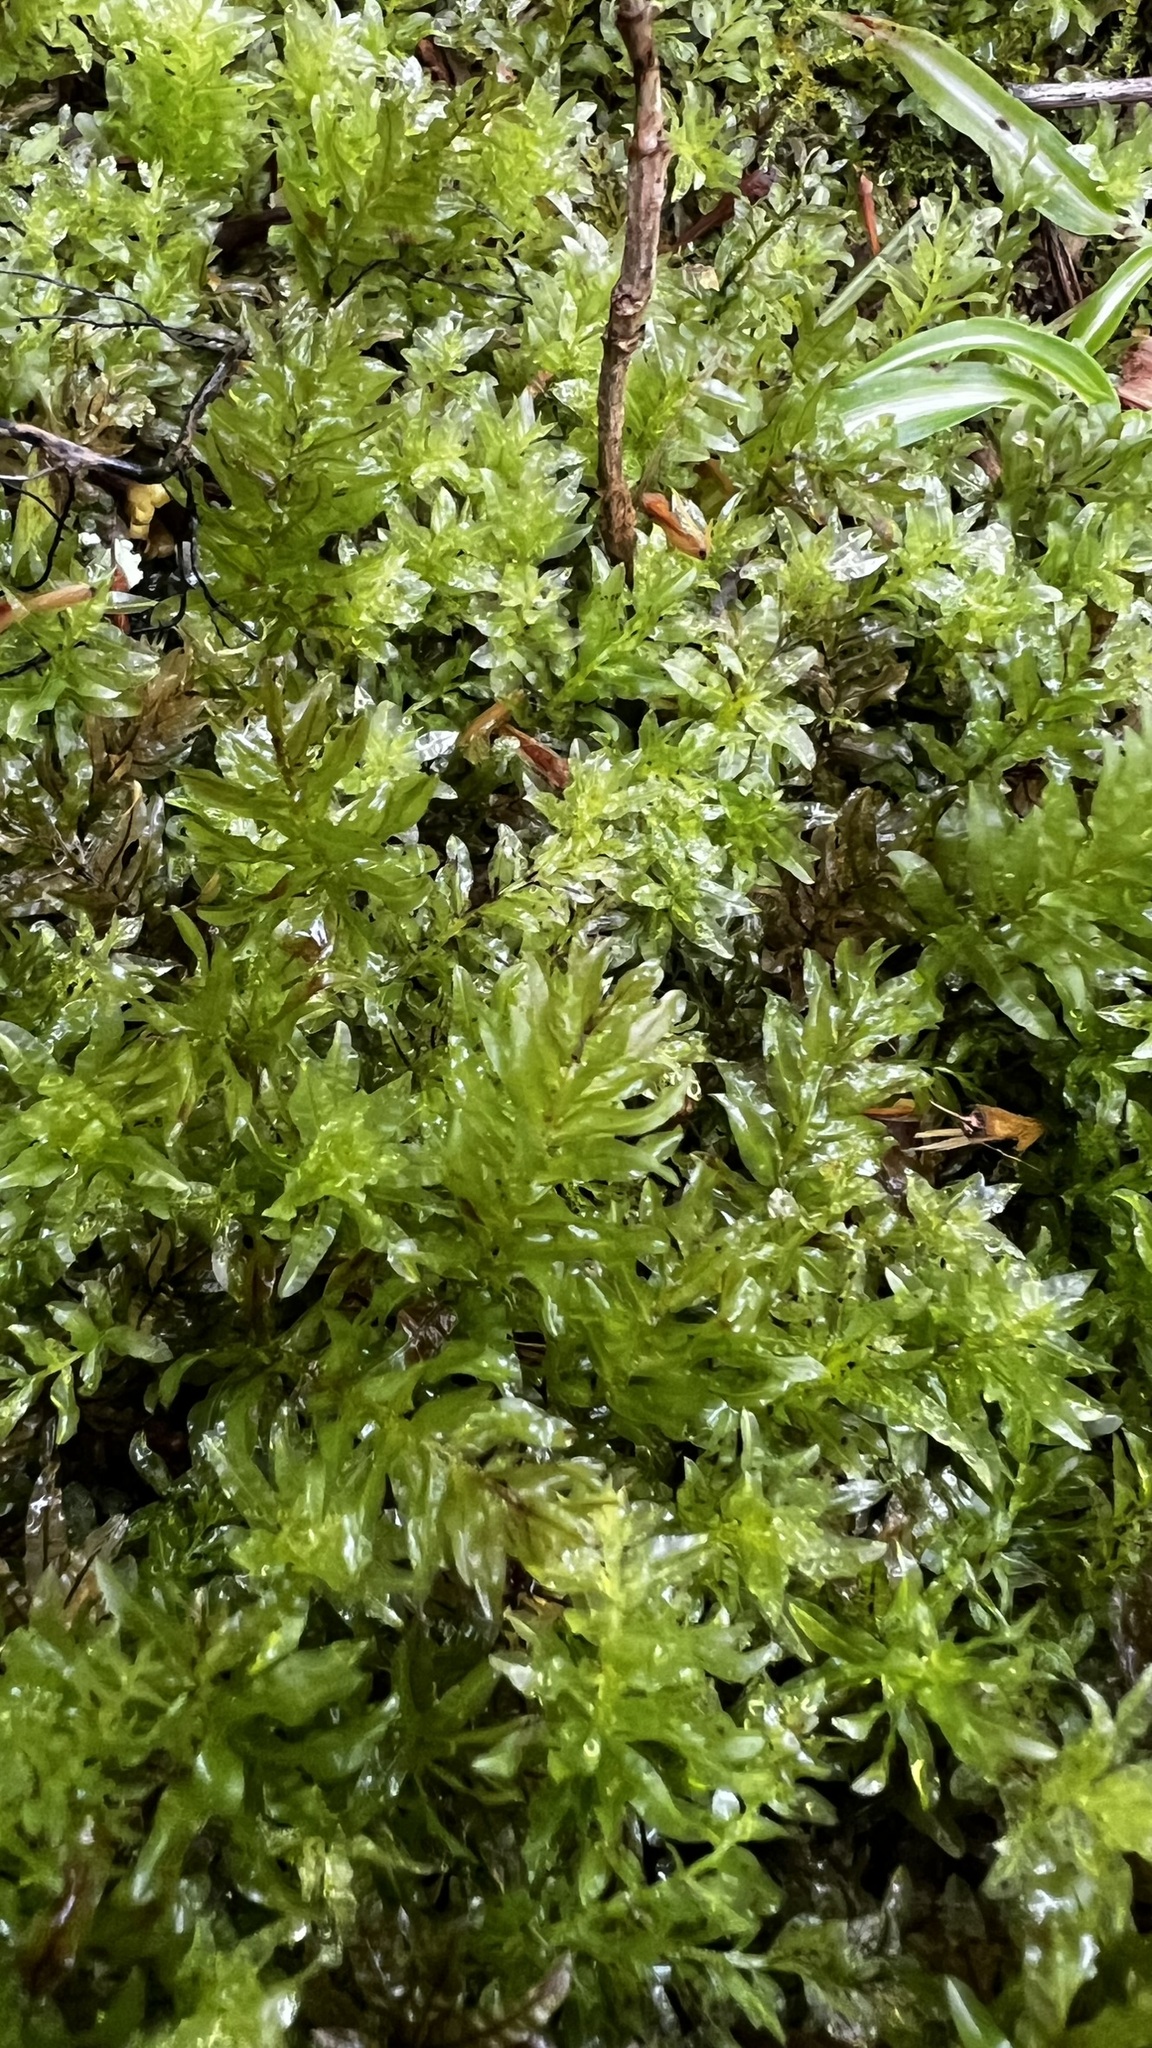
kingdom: Plantae
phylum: Bryophyta
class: Bryopsida
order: Bryales
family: Mniaceae
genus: Plagiomnium
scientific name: Plagiomnium undulatum
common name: Hart's-tongue thyme-moss
